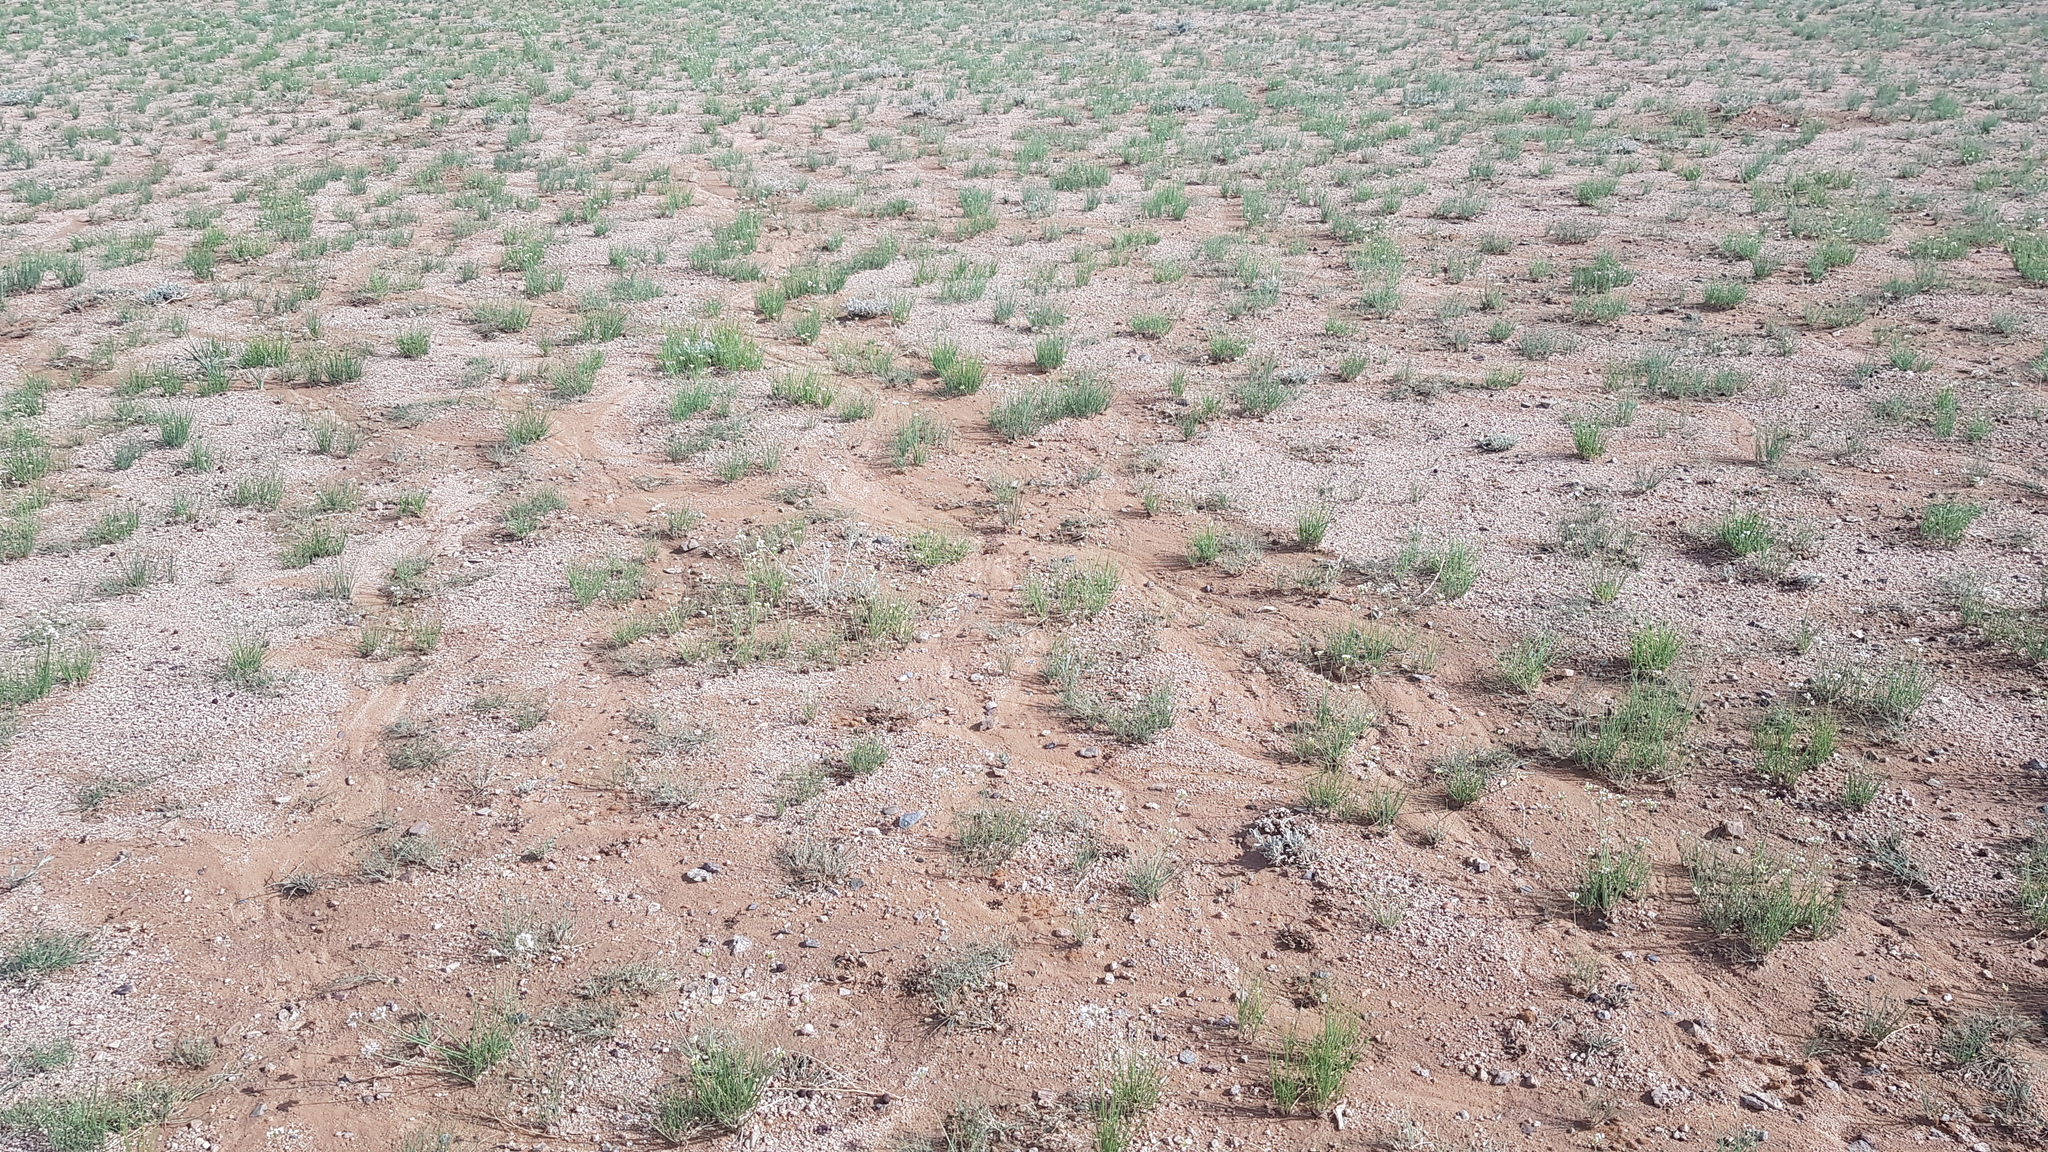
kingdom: Plantae
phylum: Tracheophyta
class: Liliopsida
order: Asparagales
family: Amaryllidaceae
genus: Allium
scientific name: Allium polyrhizum
